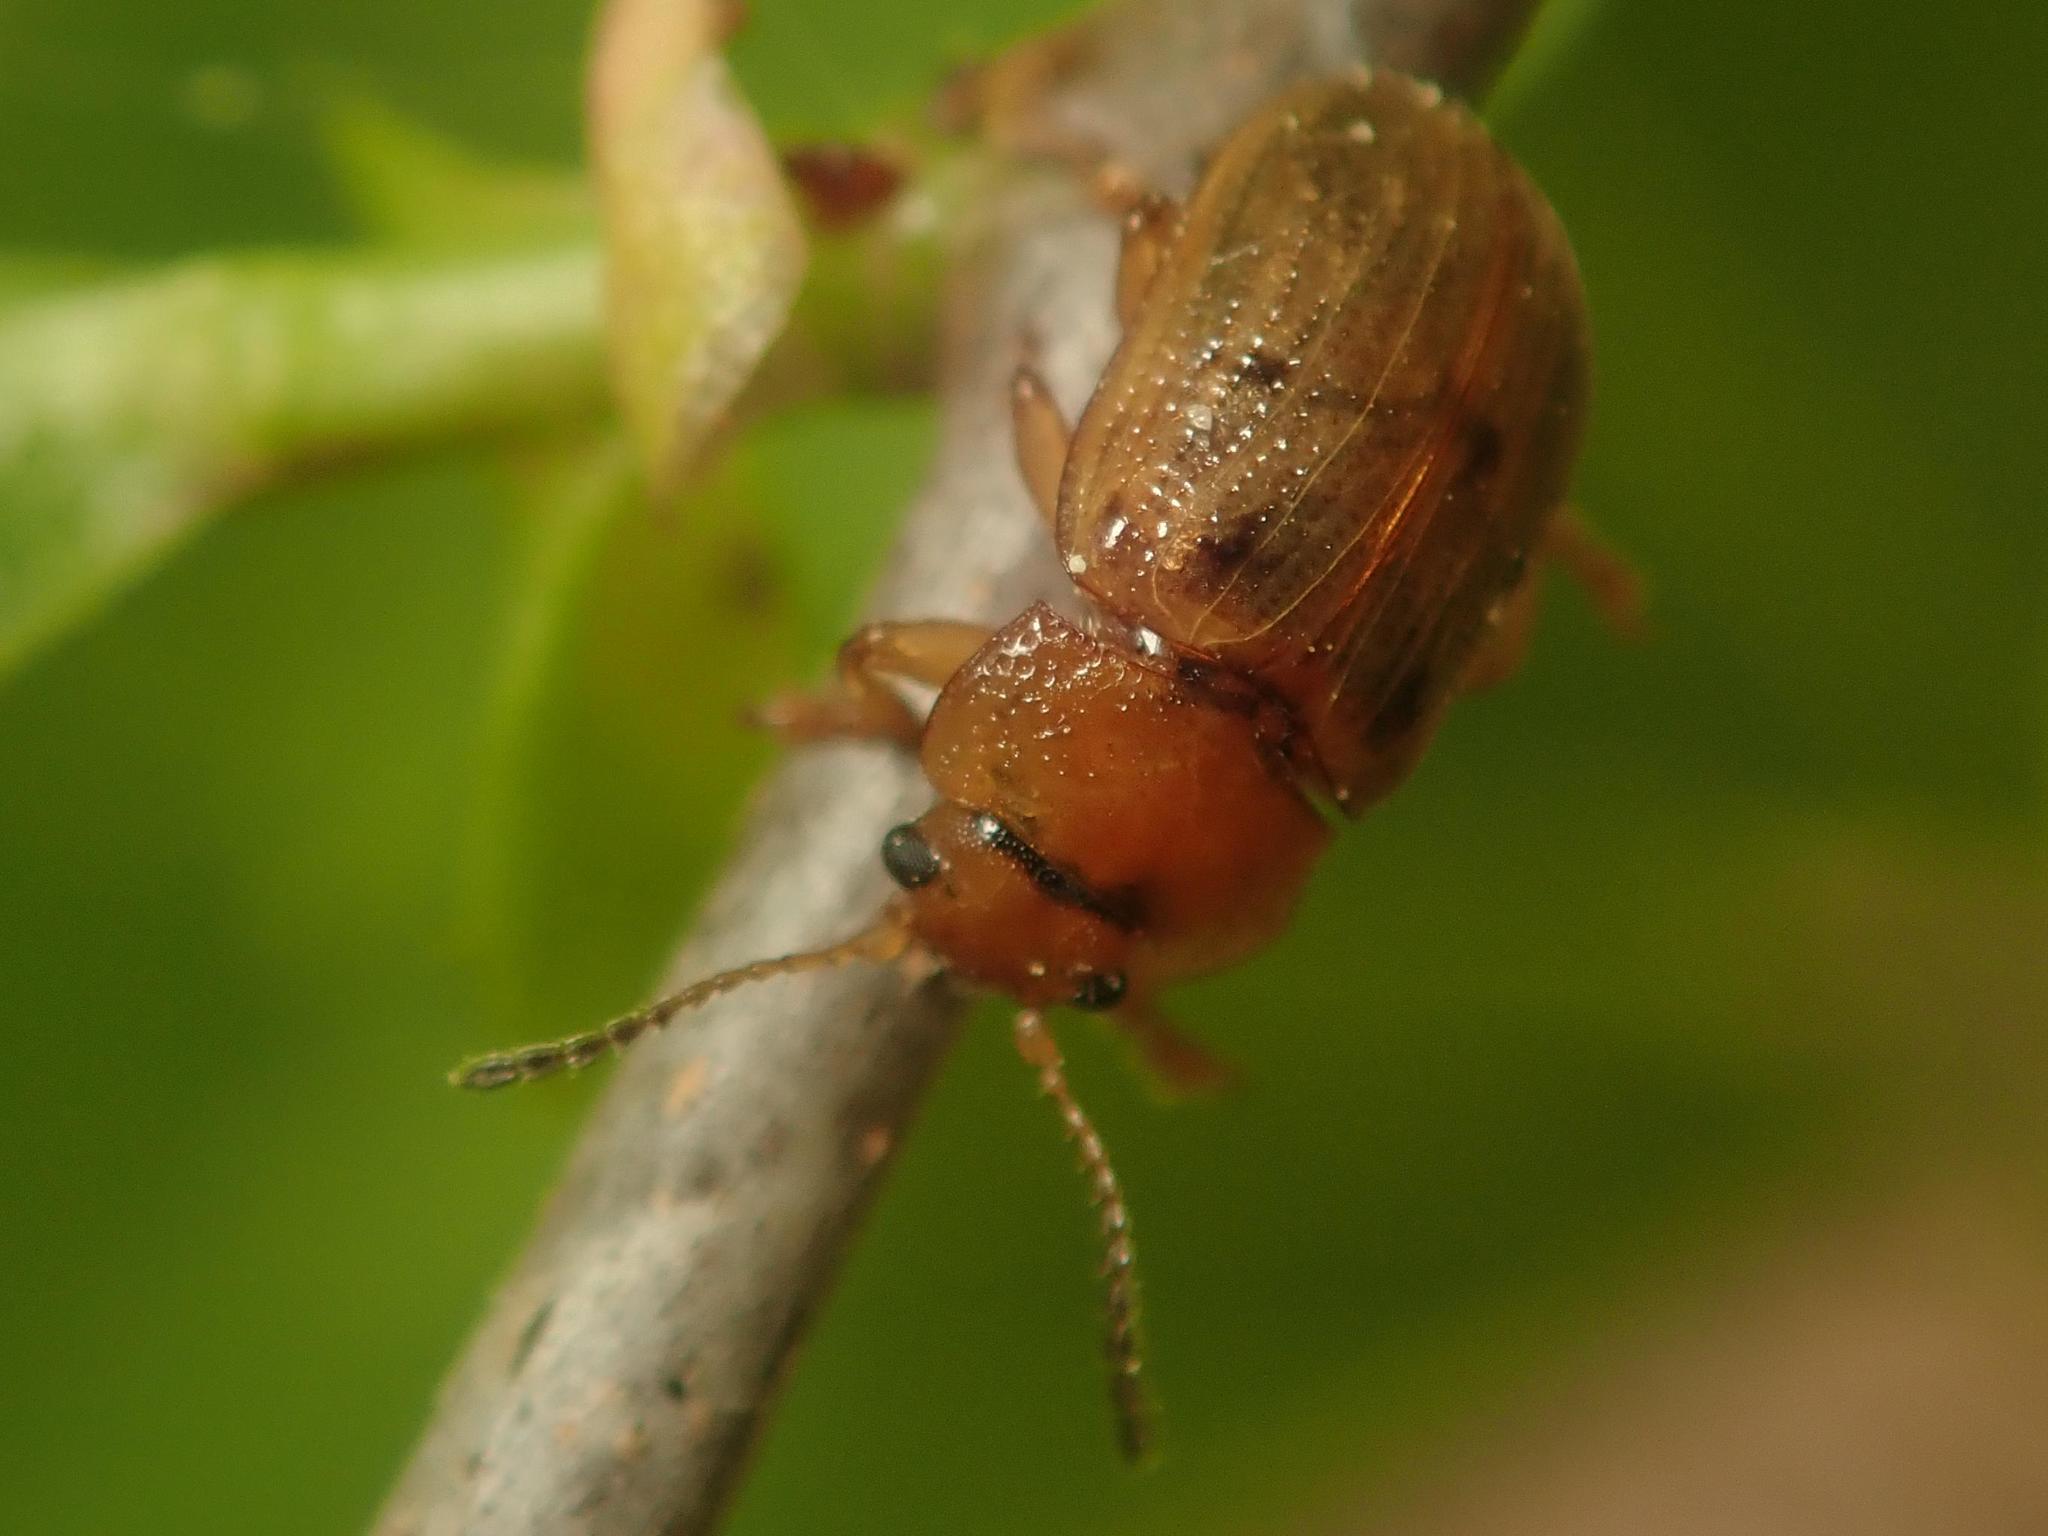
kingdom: Animalia
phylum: Arthropoda
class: Insecta
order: Coleoptera
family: Chrysomelidae
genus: Gonioctena
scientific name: Gonioctena quinquepunctata
